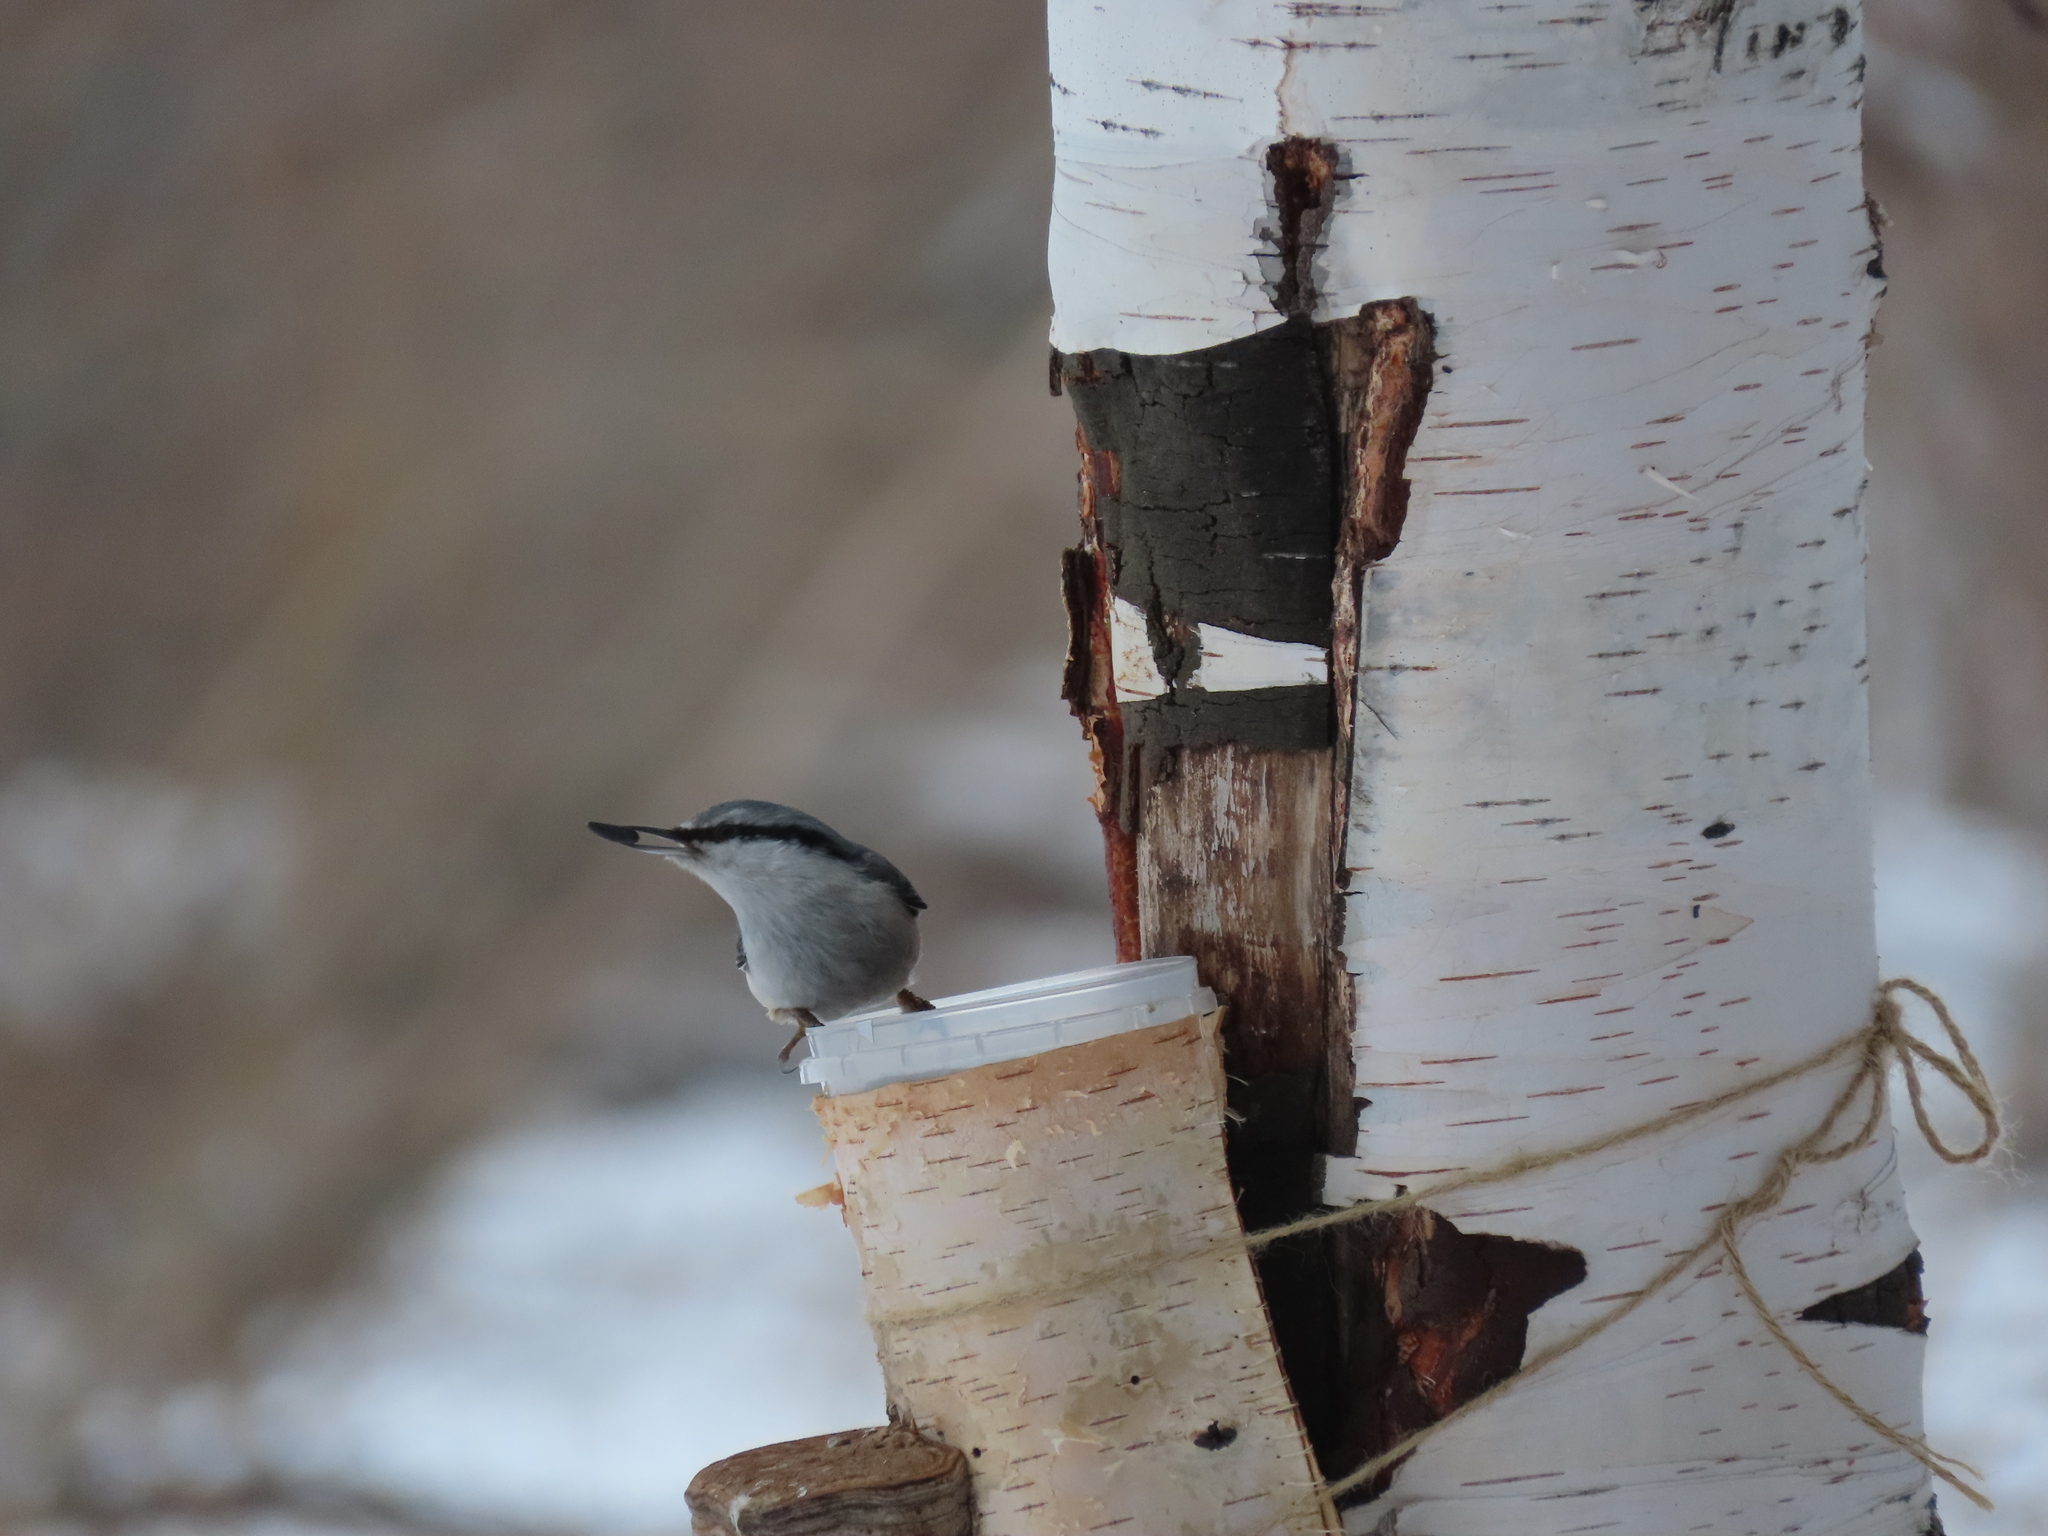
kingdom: Animalia
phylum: Chordata
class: Aves
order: Passeriformes
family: Sittidae
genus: Sitta
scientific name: Sitta europaea
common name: Eurasian nuthatch
